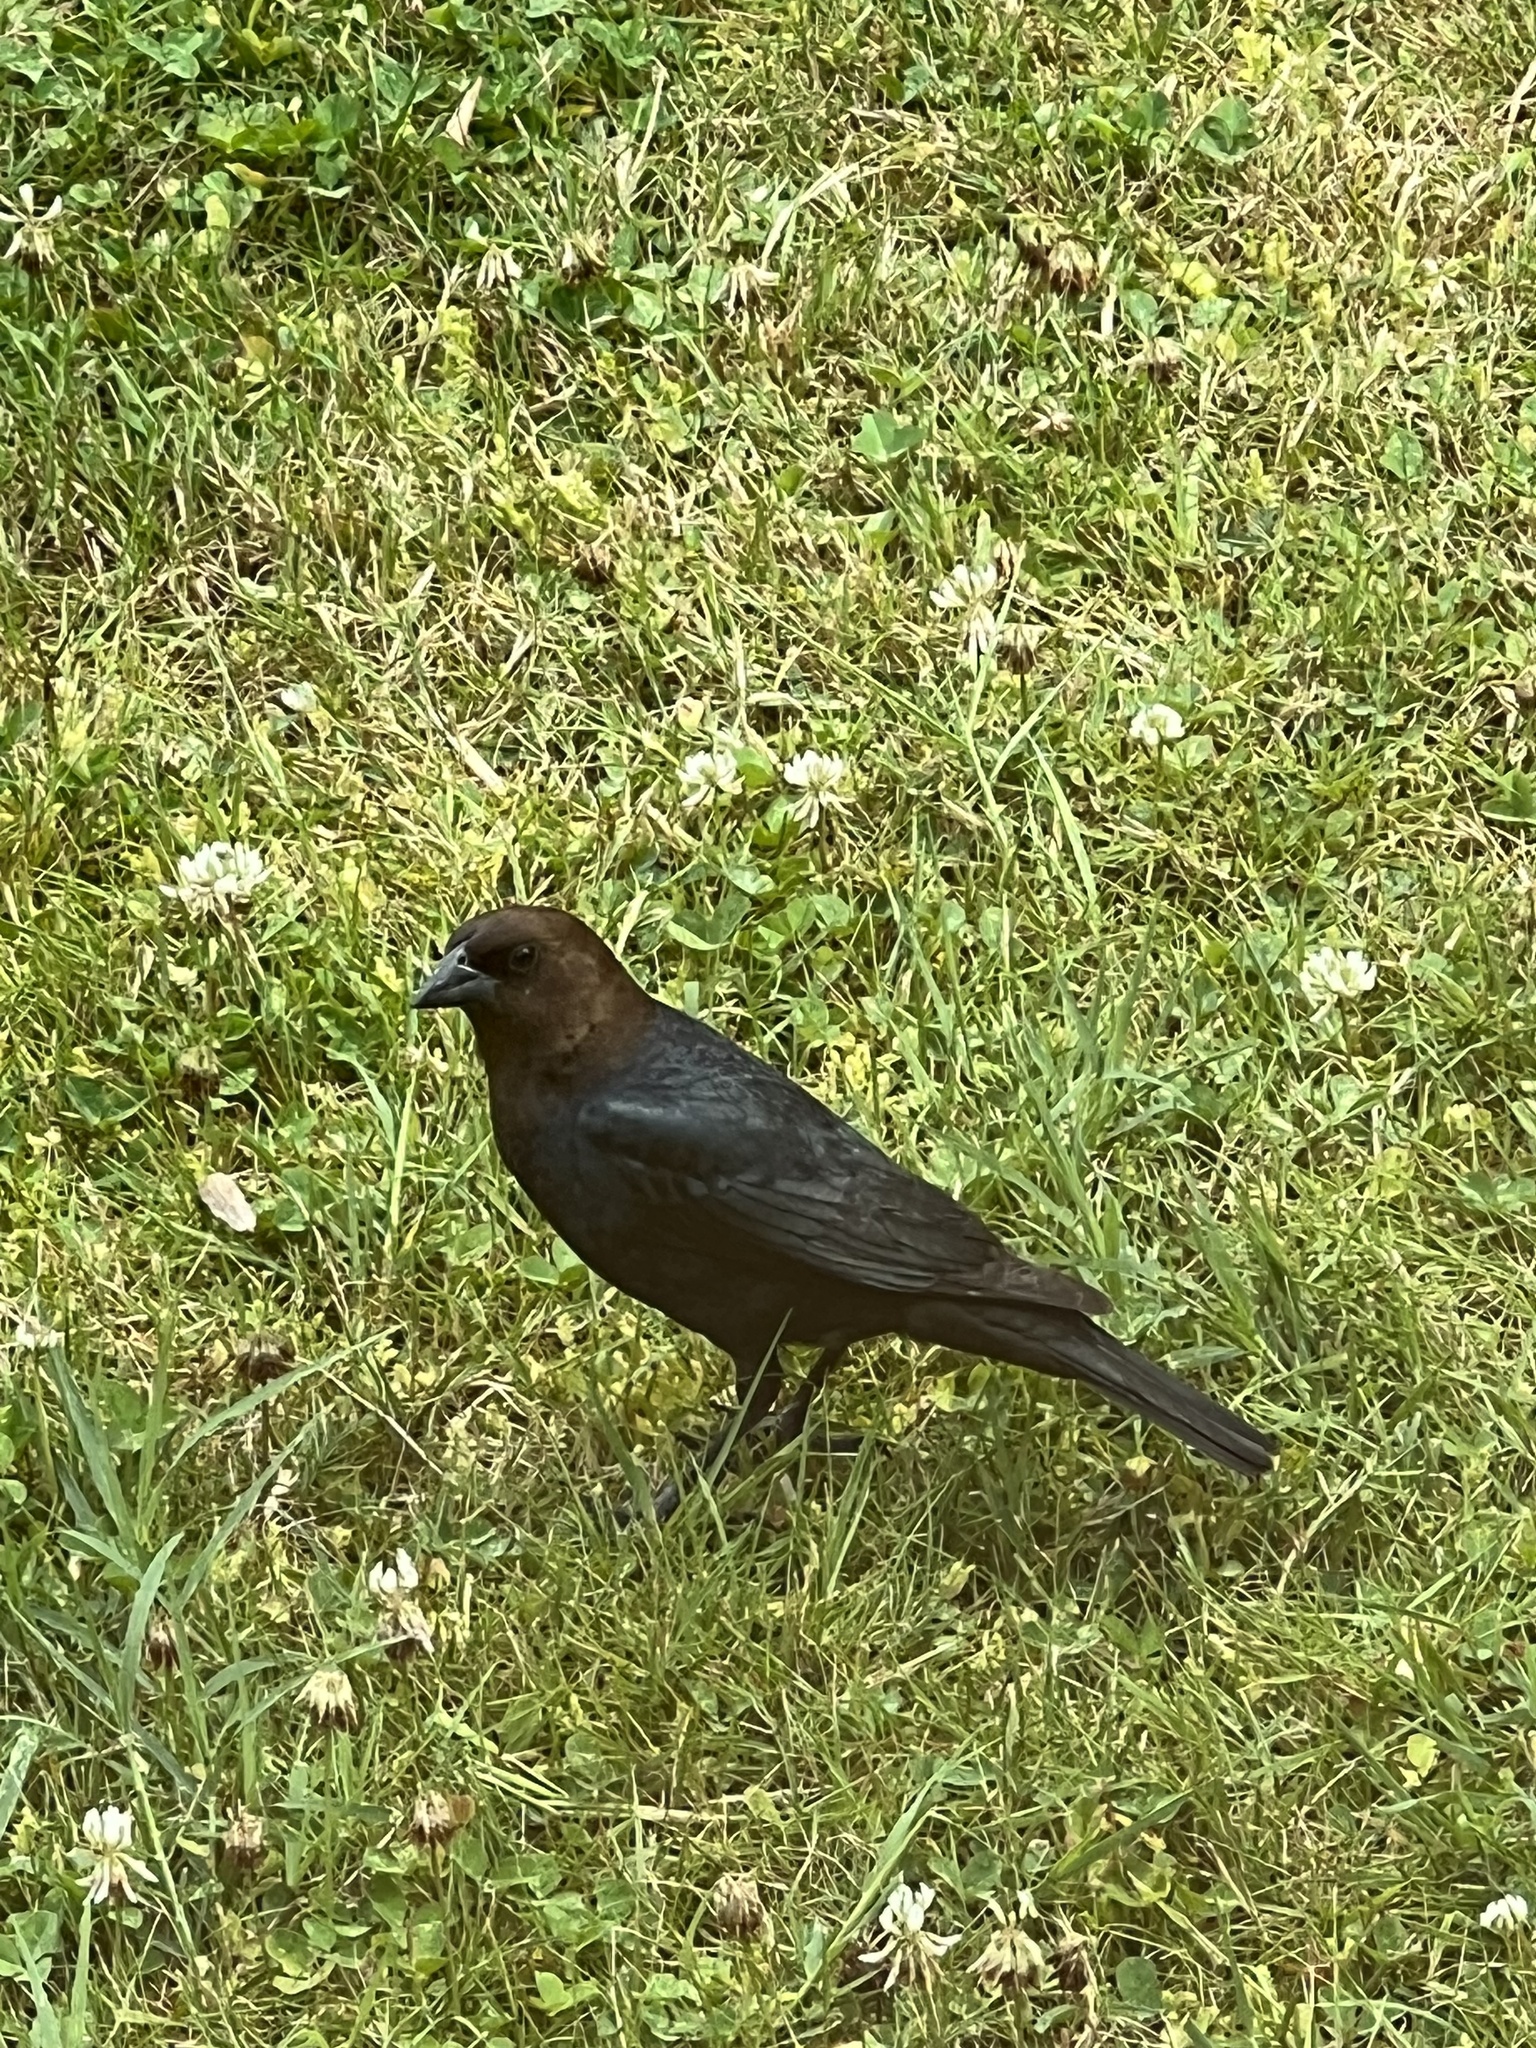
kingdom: Animalia
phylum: Chordata
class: Aves
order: Passeriformes
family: Icteridae
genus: Molothrus
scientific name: Molothrus ater
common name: Brown-headed cowbird
